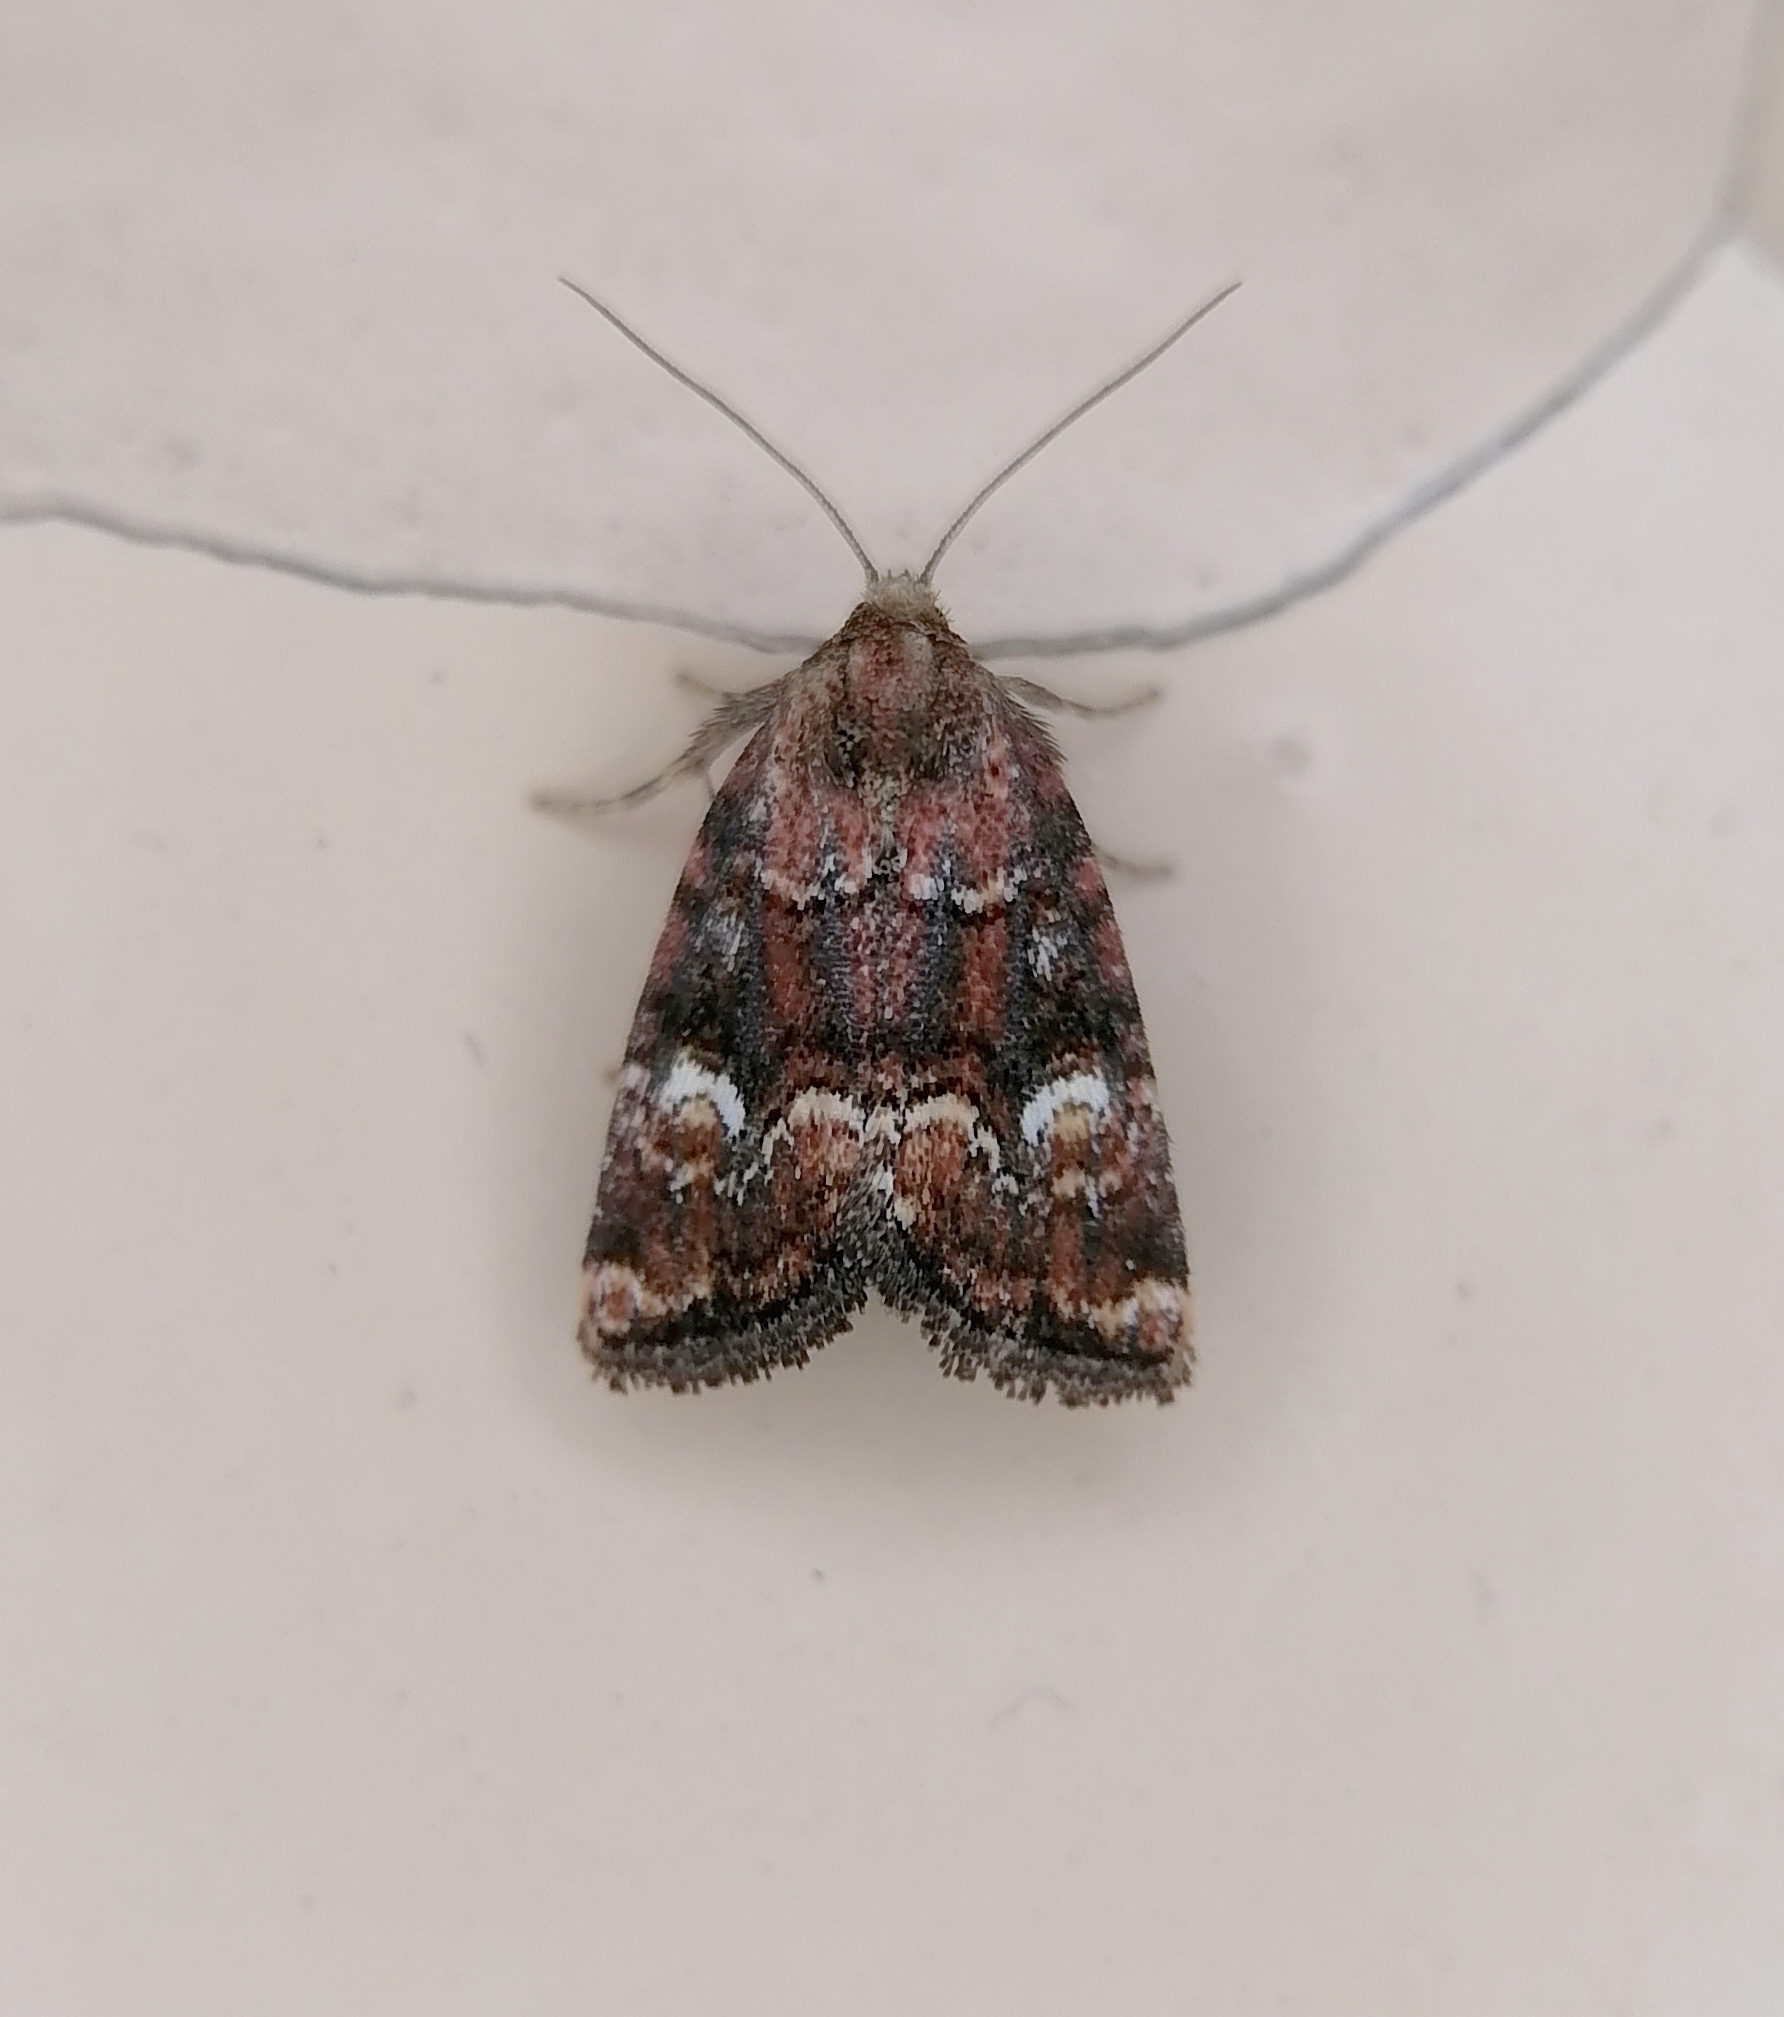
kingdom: Animalia
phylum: Arthropoda
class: Insecta
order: Lepidoptera
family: Noctuidae
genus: Photedes
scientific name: Photedes captiuncula
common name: Least minor
